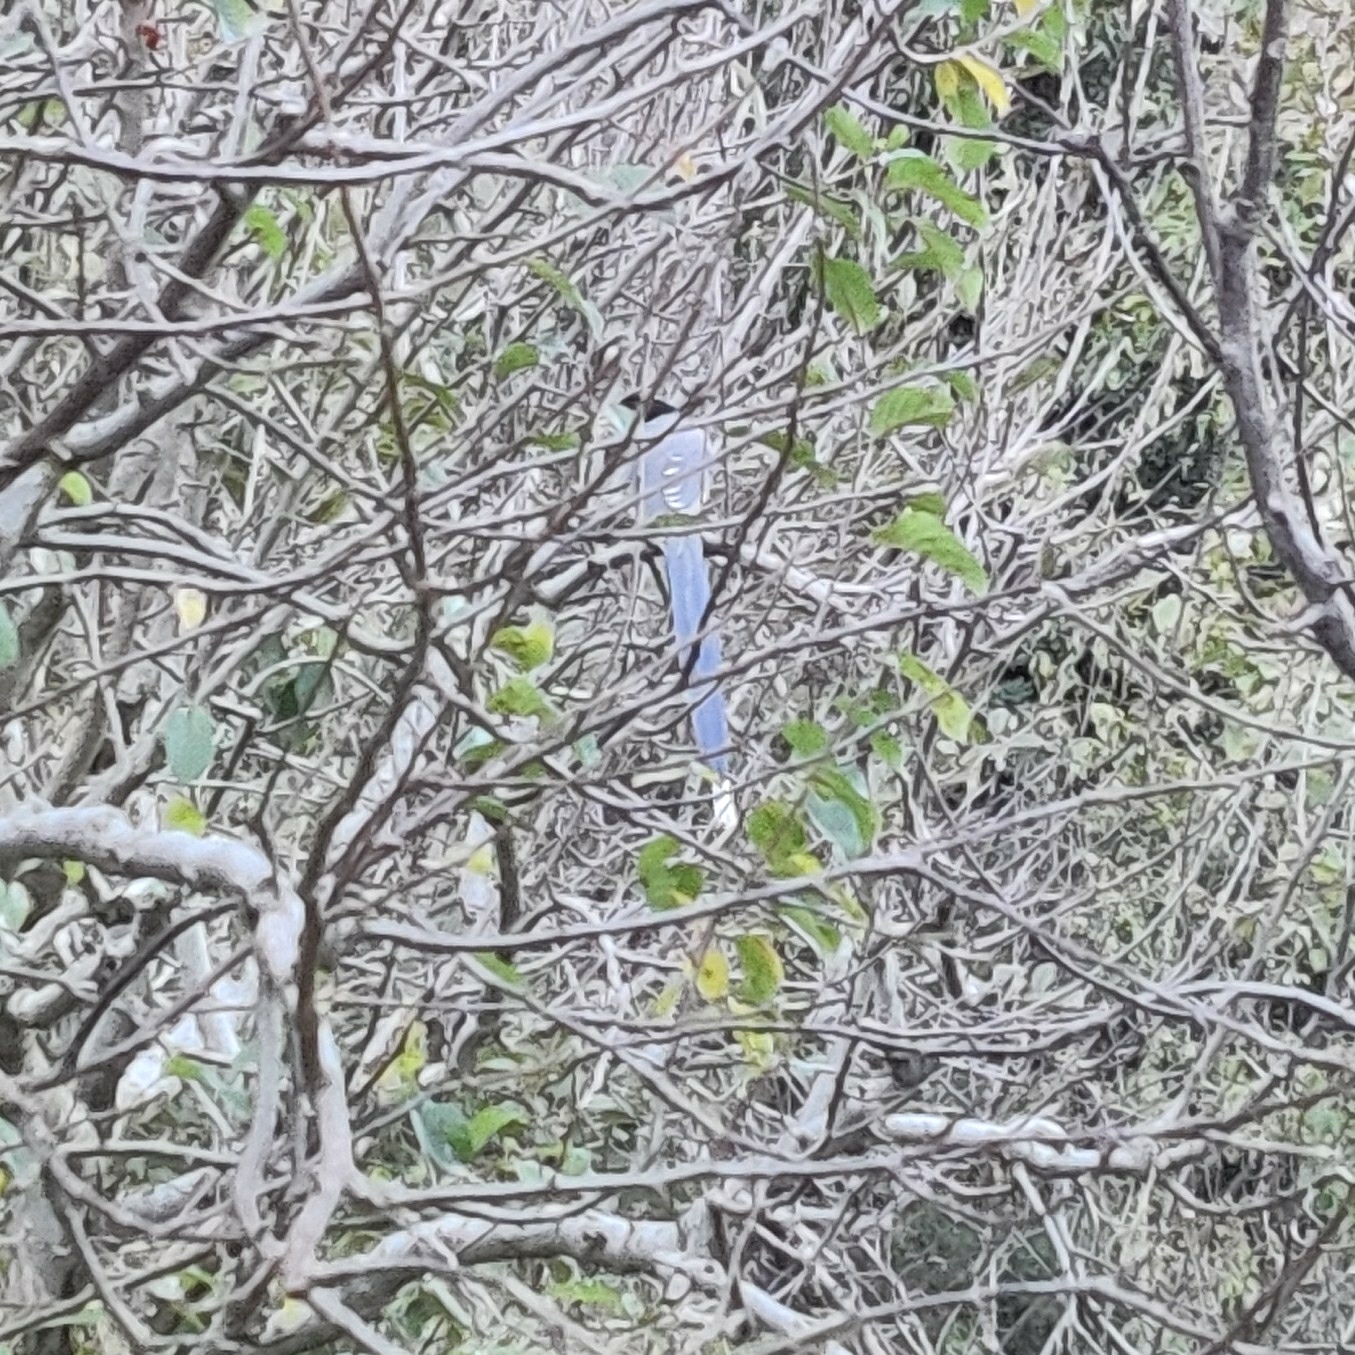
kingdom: Animalia
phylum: Chordata
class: Aves
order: Passeriformes
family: Corvidae
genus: Urocissa
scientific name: Urocissa flavirostris
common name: Yellow-billed blue magpie
